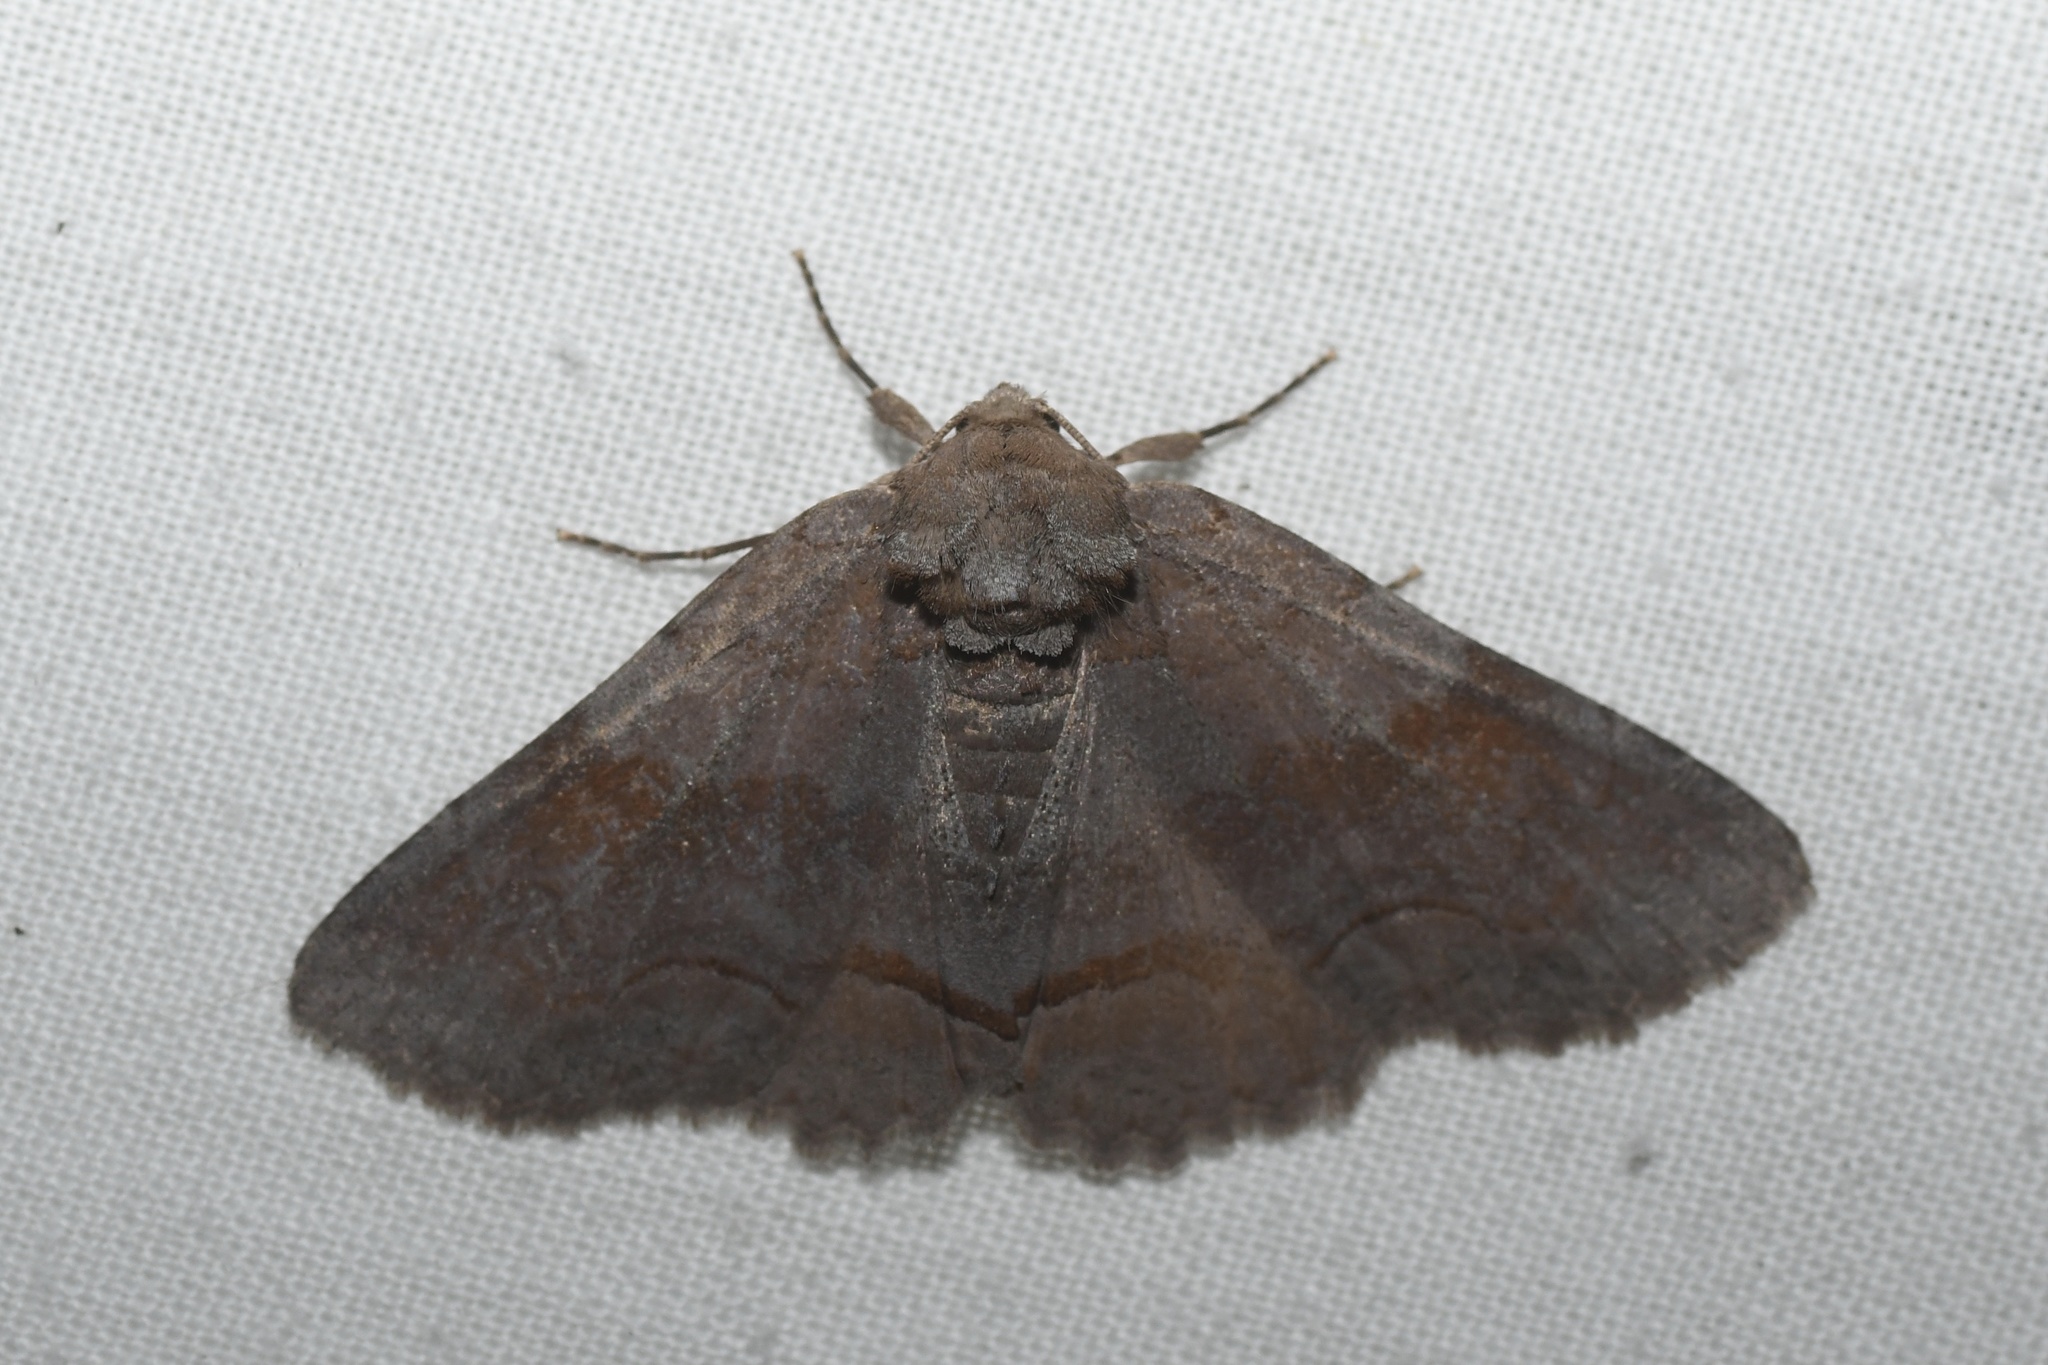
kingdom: Animalia
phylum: Arthropoda
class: Insecta
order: Lepidoptera
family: Erebidae
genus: Zale
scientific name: Zale obliqua
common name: Oblique zale moth
